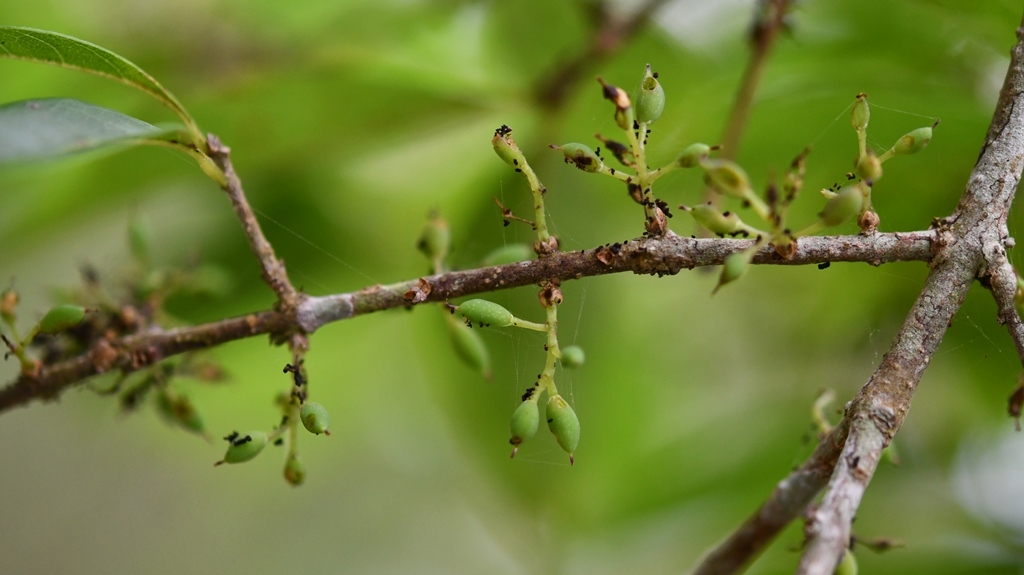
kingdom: Plantae
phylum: Tracheophyta
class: Magnoliopsida
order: Lamiales
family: Oleaceae
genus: Forestiera
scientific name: Forestiera rhamnifolia
